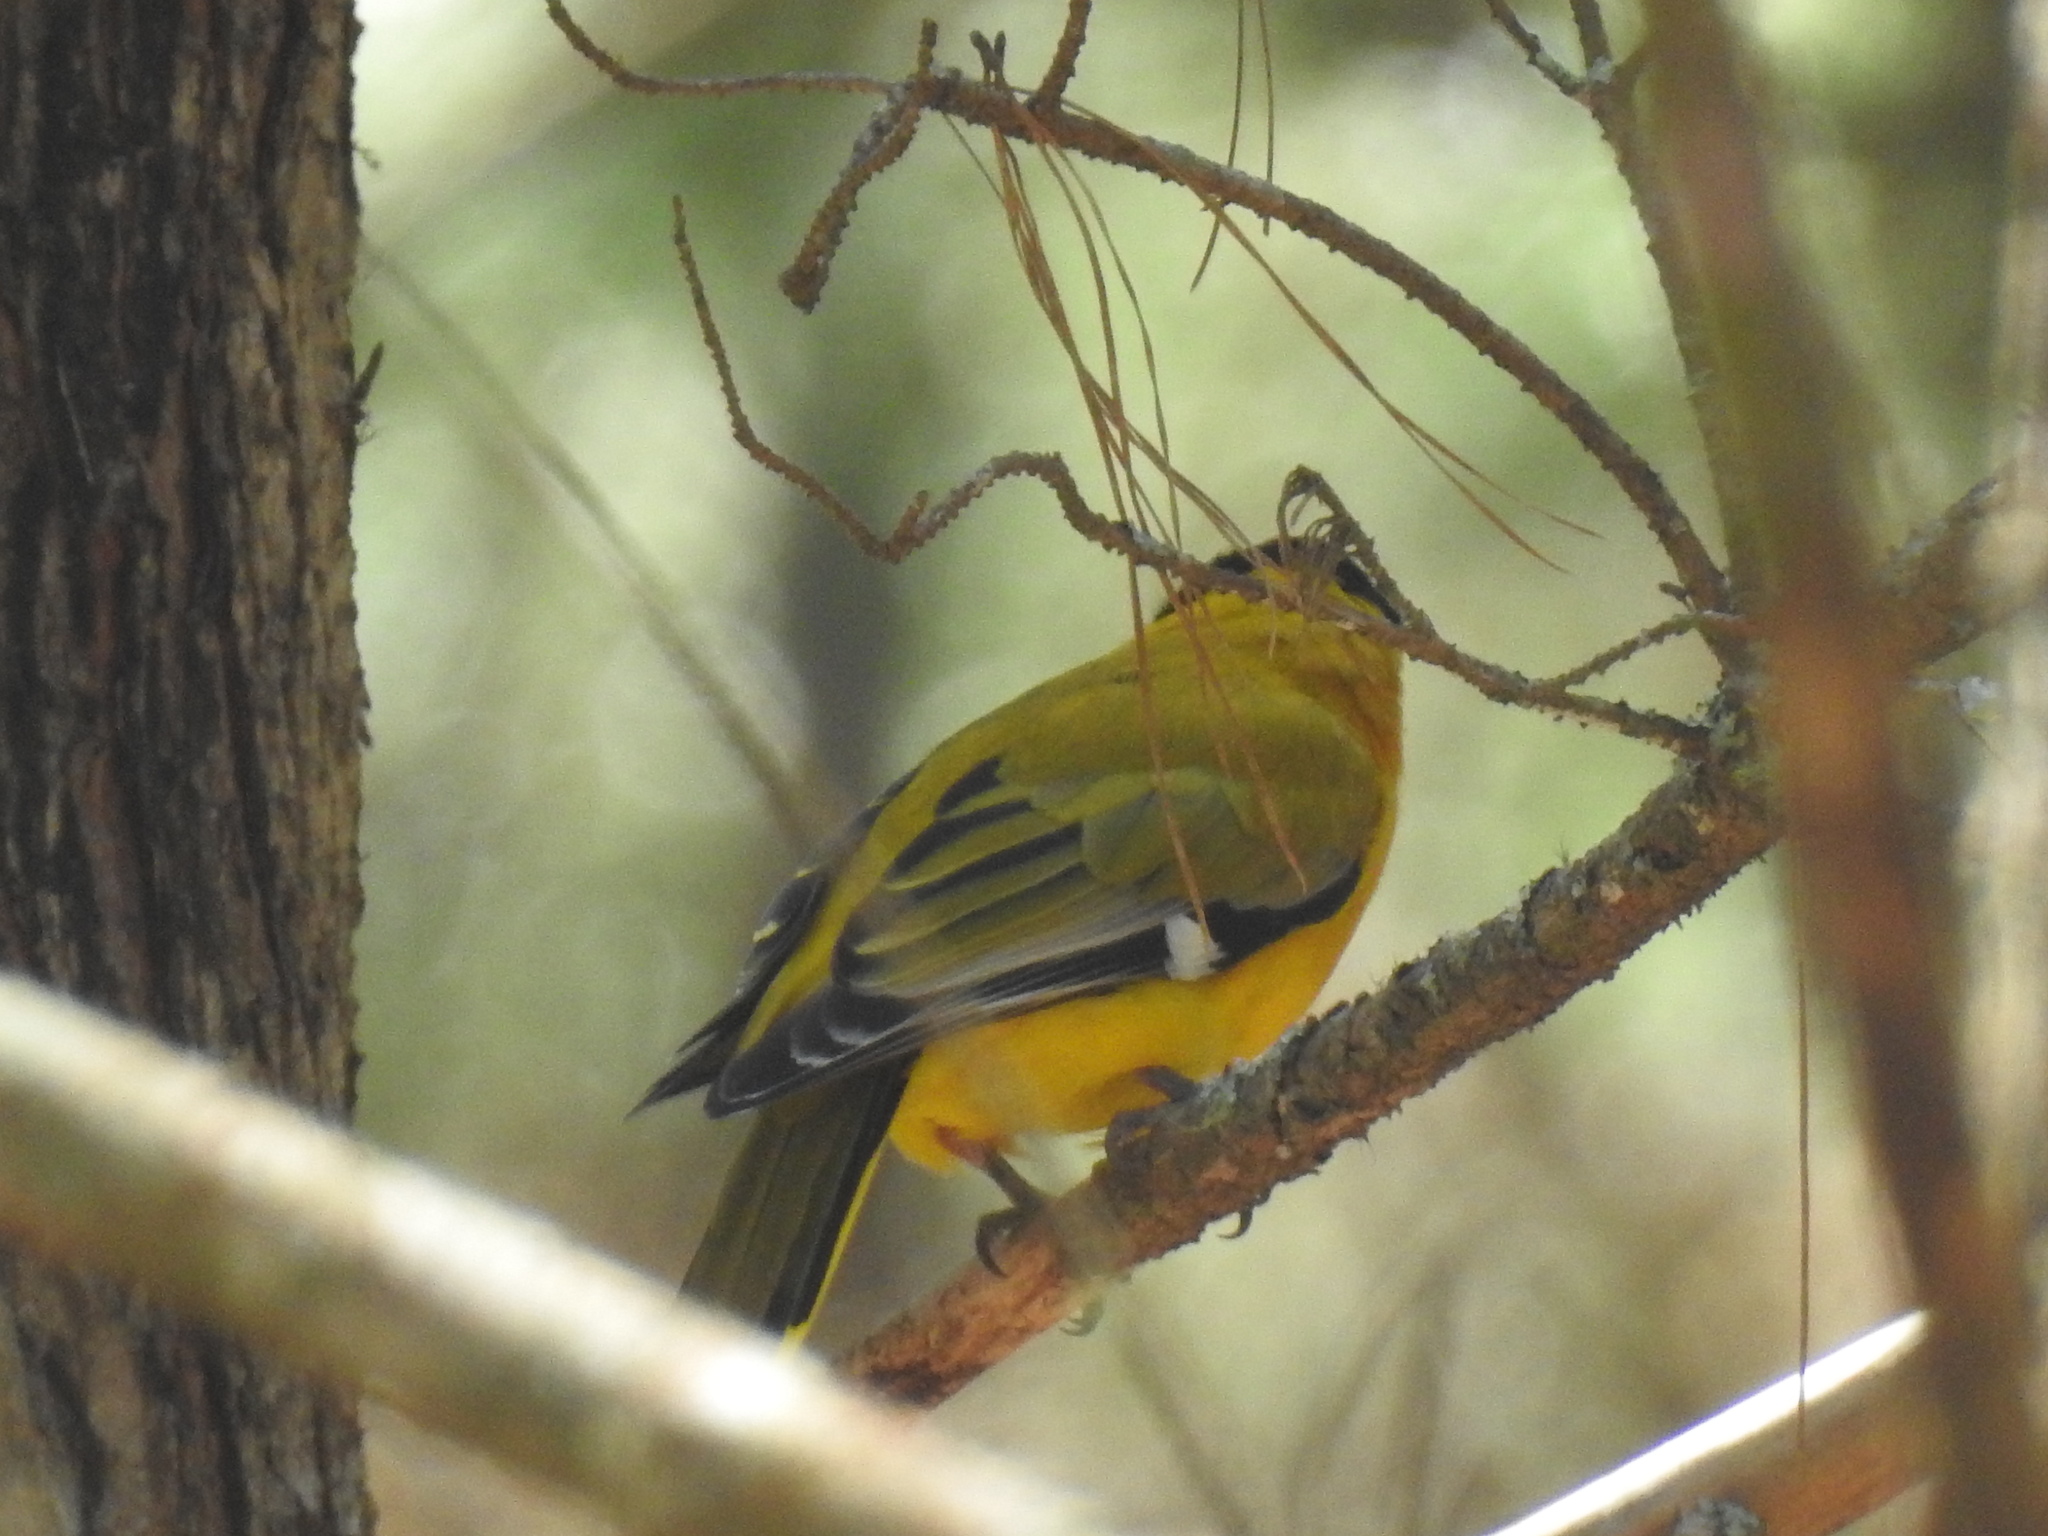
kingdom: Animalia
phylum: Chordata
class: Aves
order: Passeriformes
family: Oriolidae
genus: Oriolus
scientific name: Oriolus larvatus
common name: Black-headed oriole
